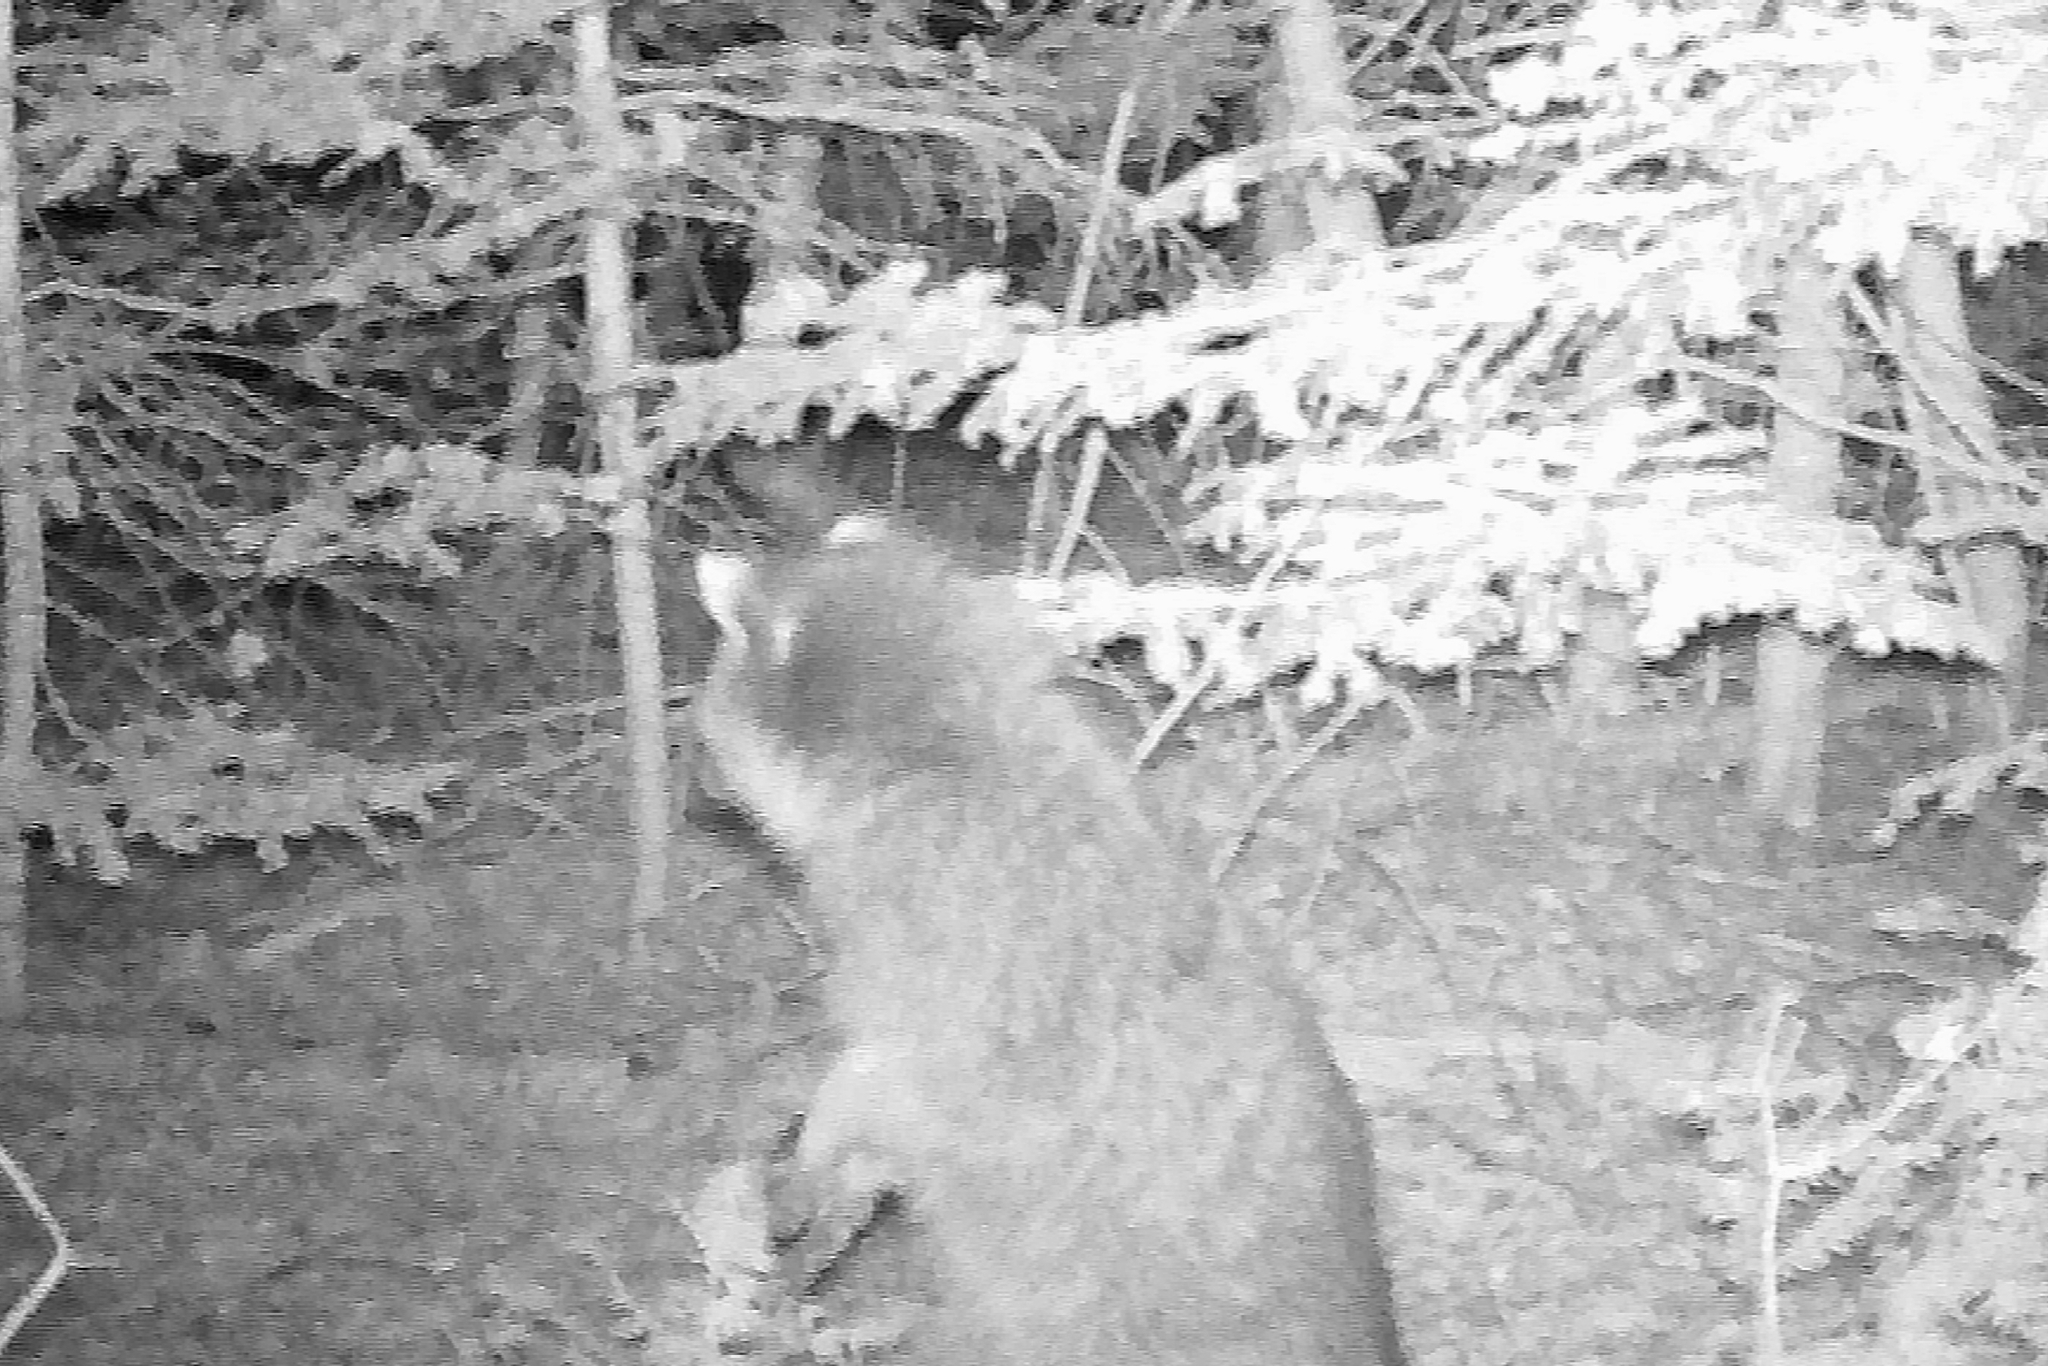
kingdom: Animalia
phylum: Chordata
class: Mammalia
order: Carnivora
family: Procyonidae
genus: Procyon
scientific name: Procyon lotor
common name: Raccoon
